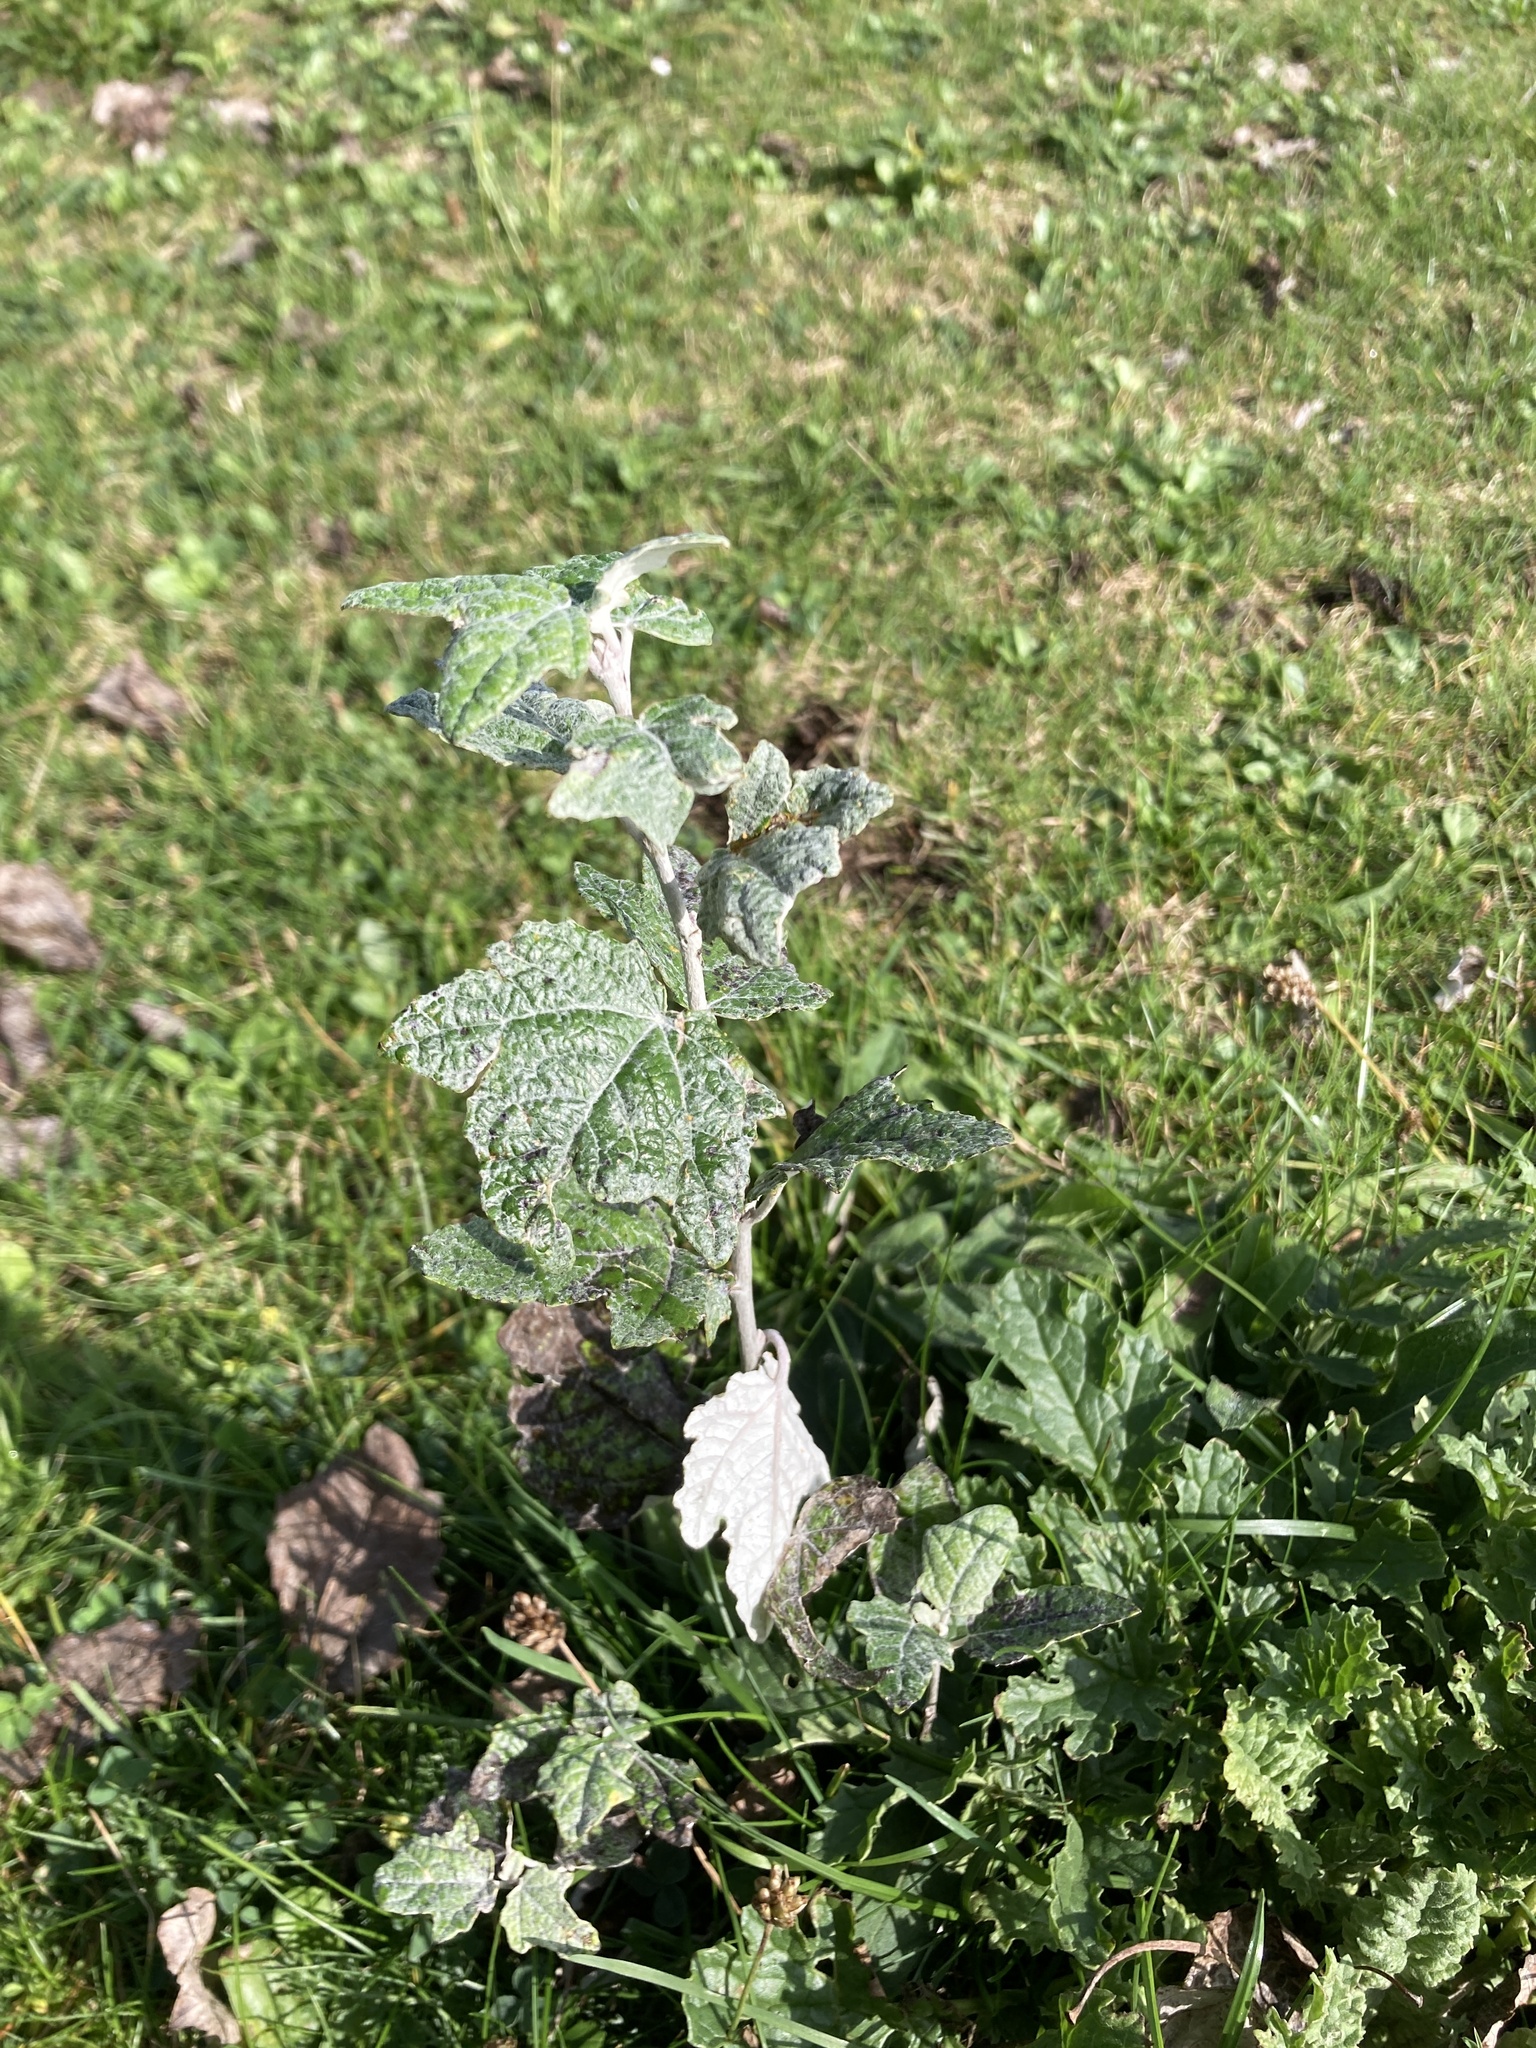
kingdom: Plantae
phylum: Tracheophyta
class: Magnoliopsida
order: Malpighiales
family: Salicaceae
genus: Populus
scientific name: Populus alba
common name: White poplar
